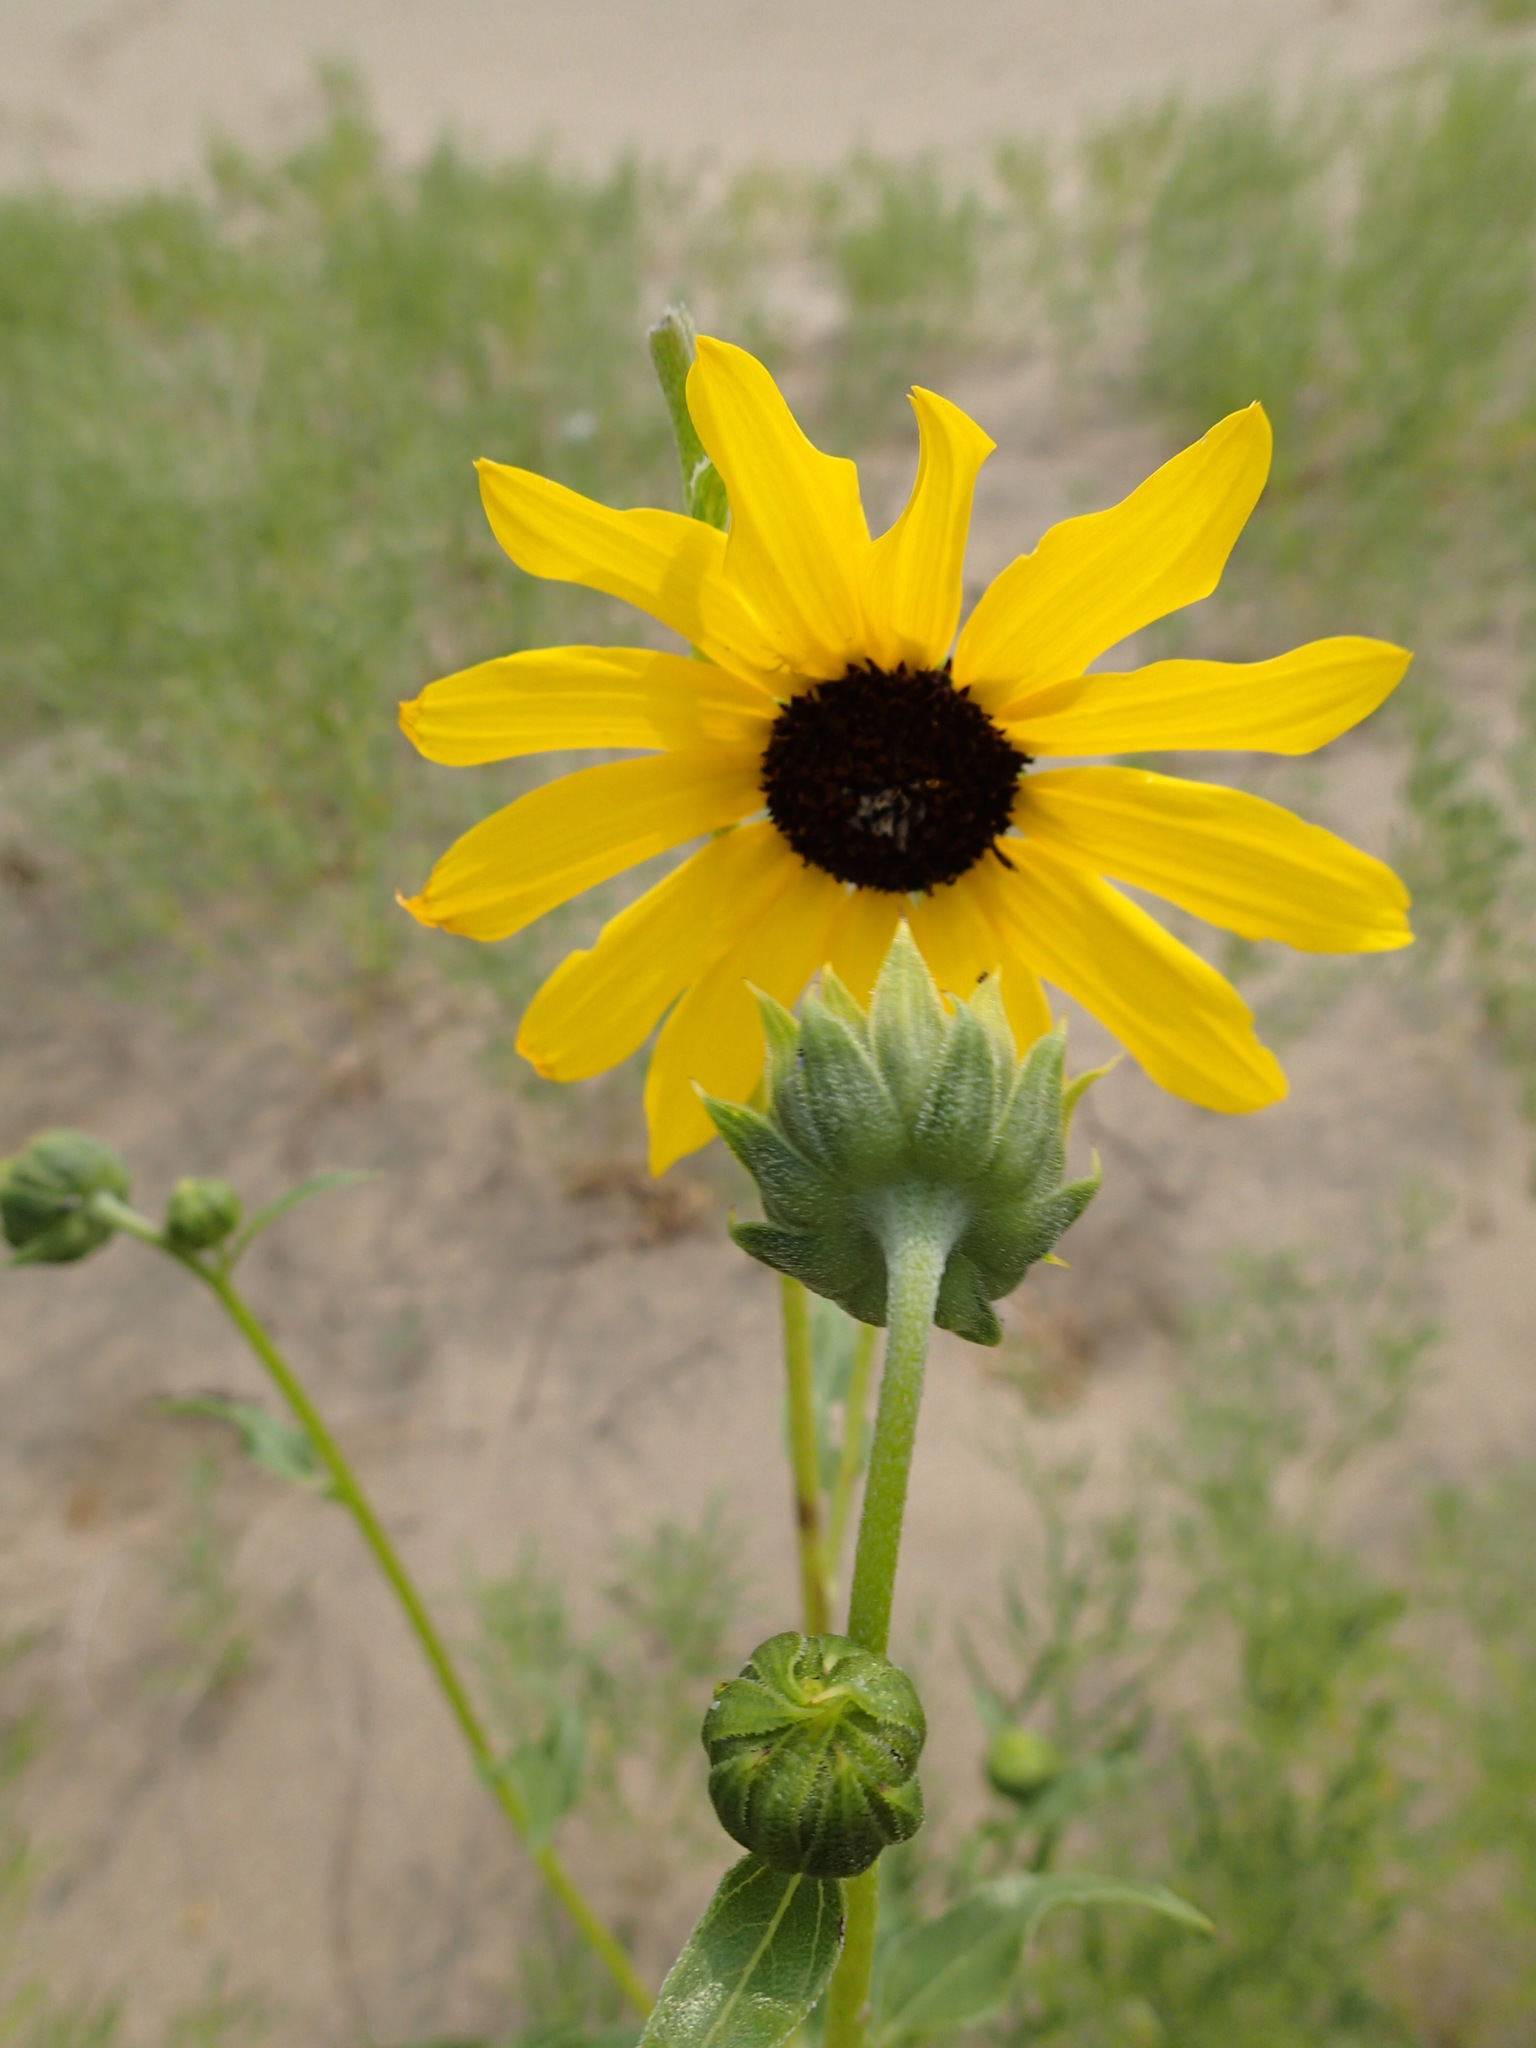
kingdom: Plantae
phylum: Tracheophyta
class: Magnoliopsida
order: Asterales
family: Asteraceae
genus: Helianthus
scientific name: Helianthus petiolaris
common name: Lesser sunflower
